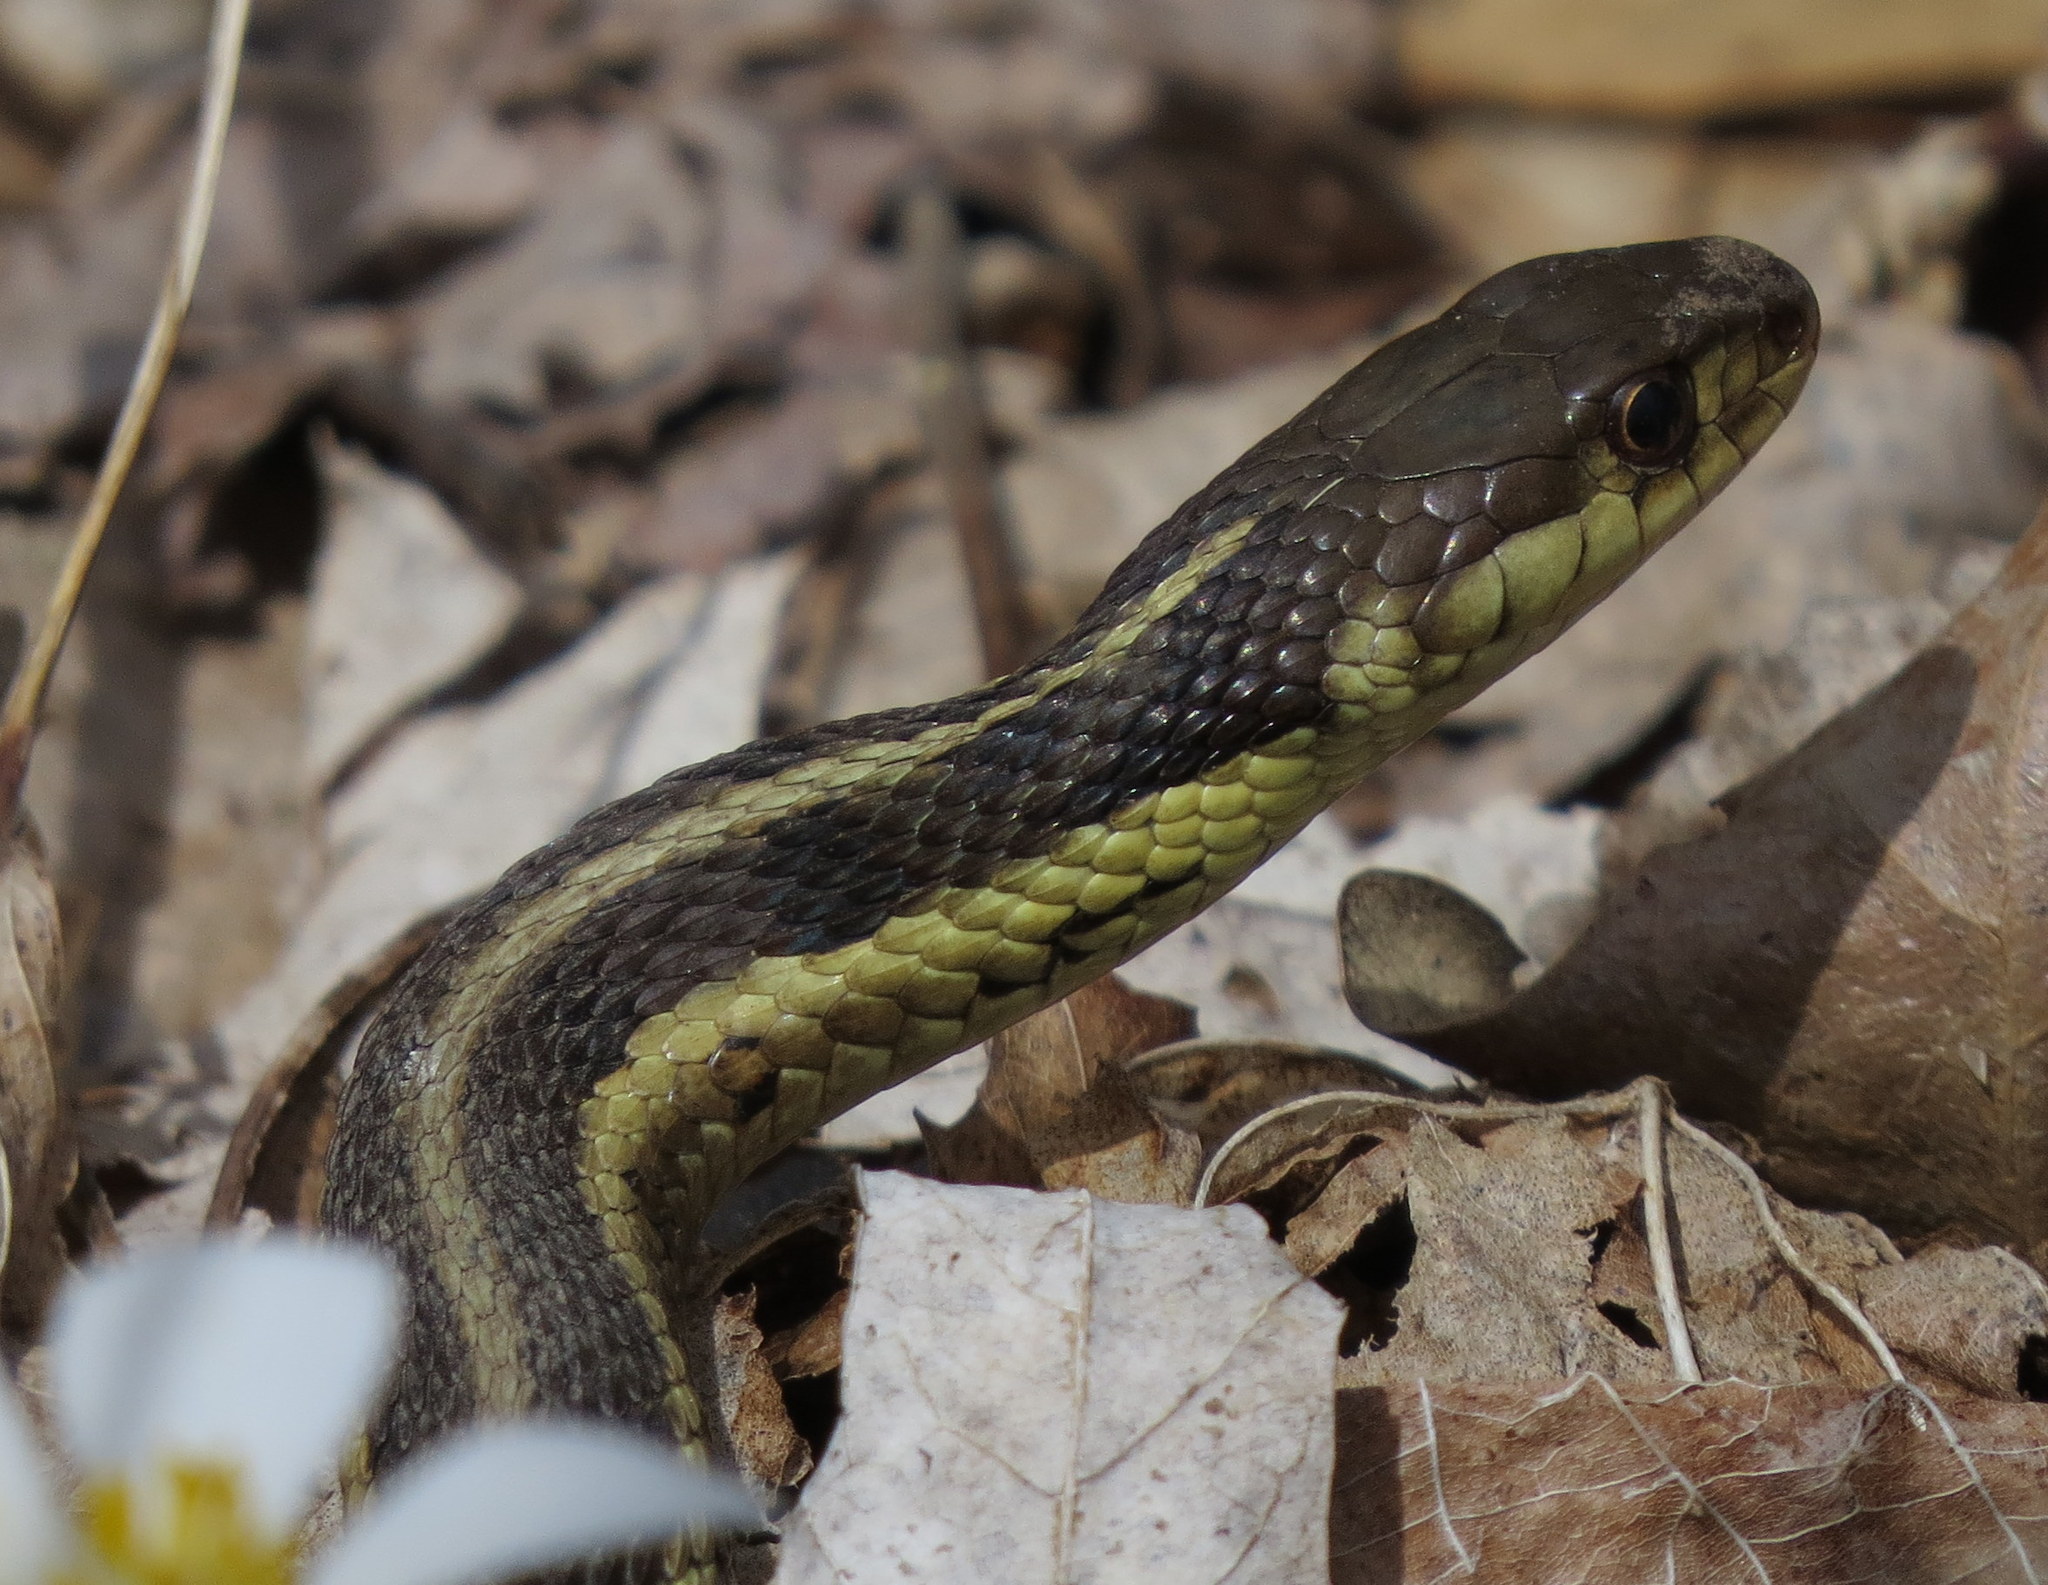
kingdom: Animalia
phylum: Chordata
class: Squamata
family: Colubridae
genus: Thamnophis
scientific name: Thamnophis sirtalis
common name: Common garter snake
